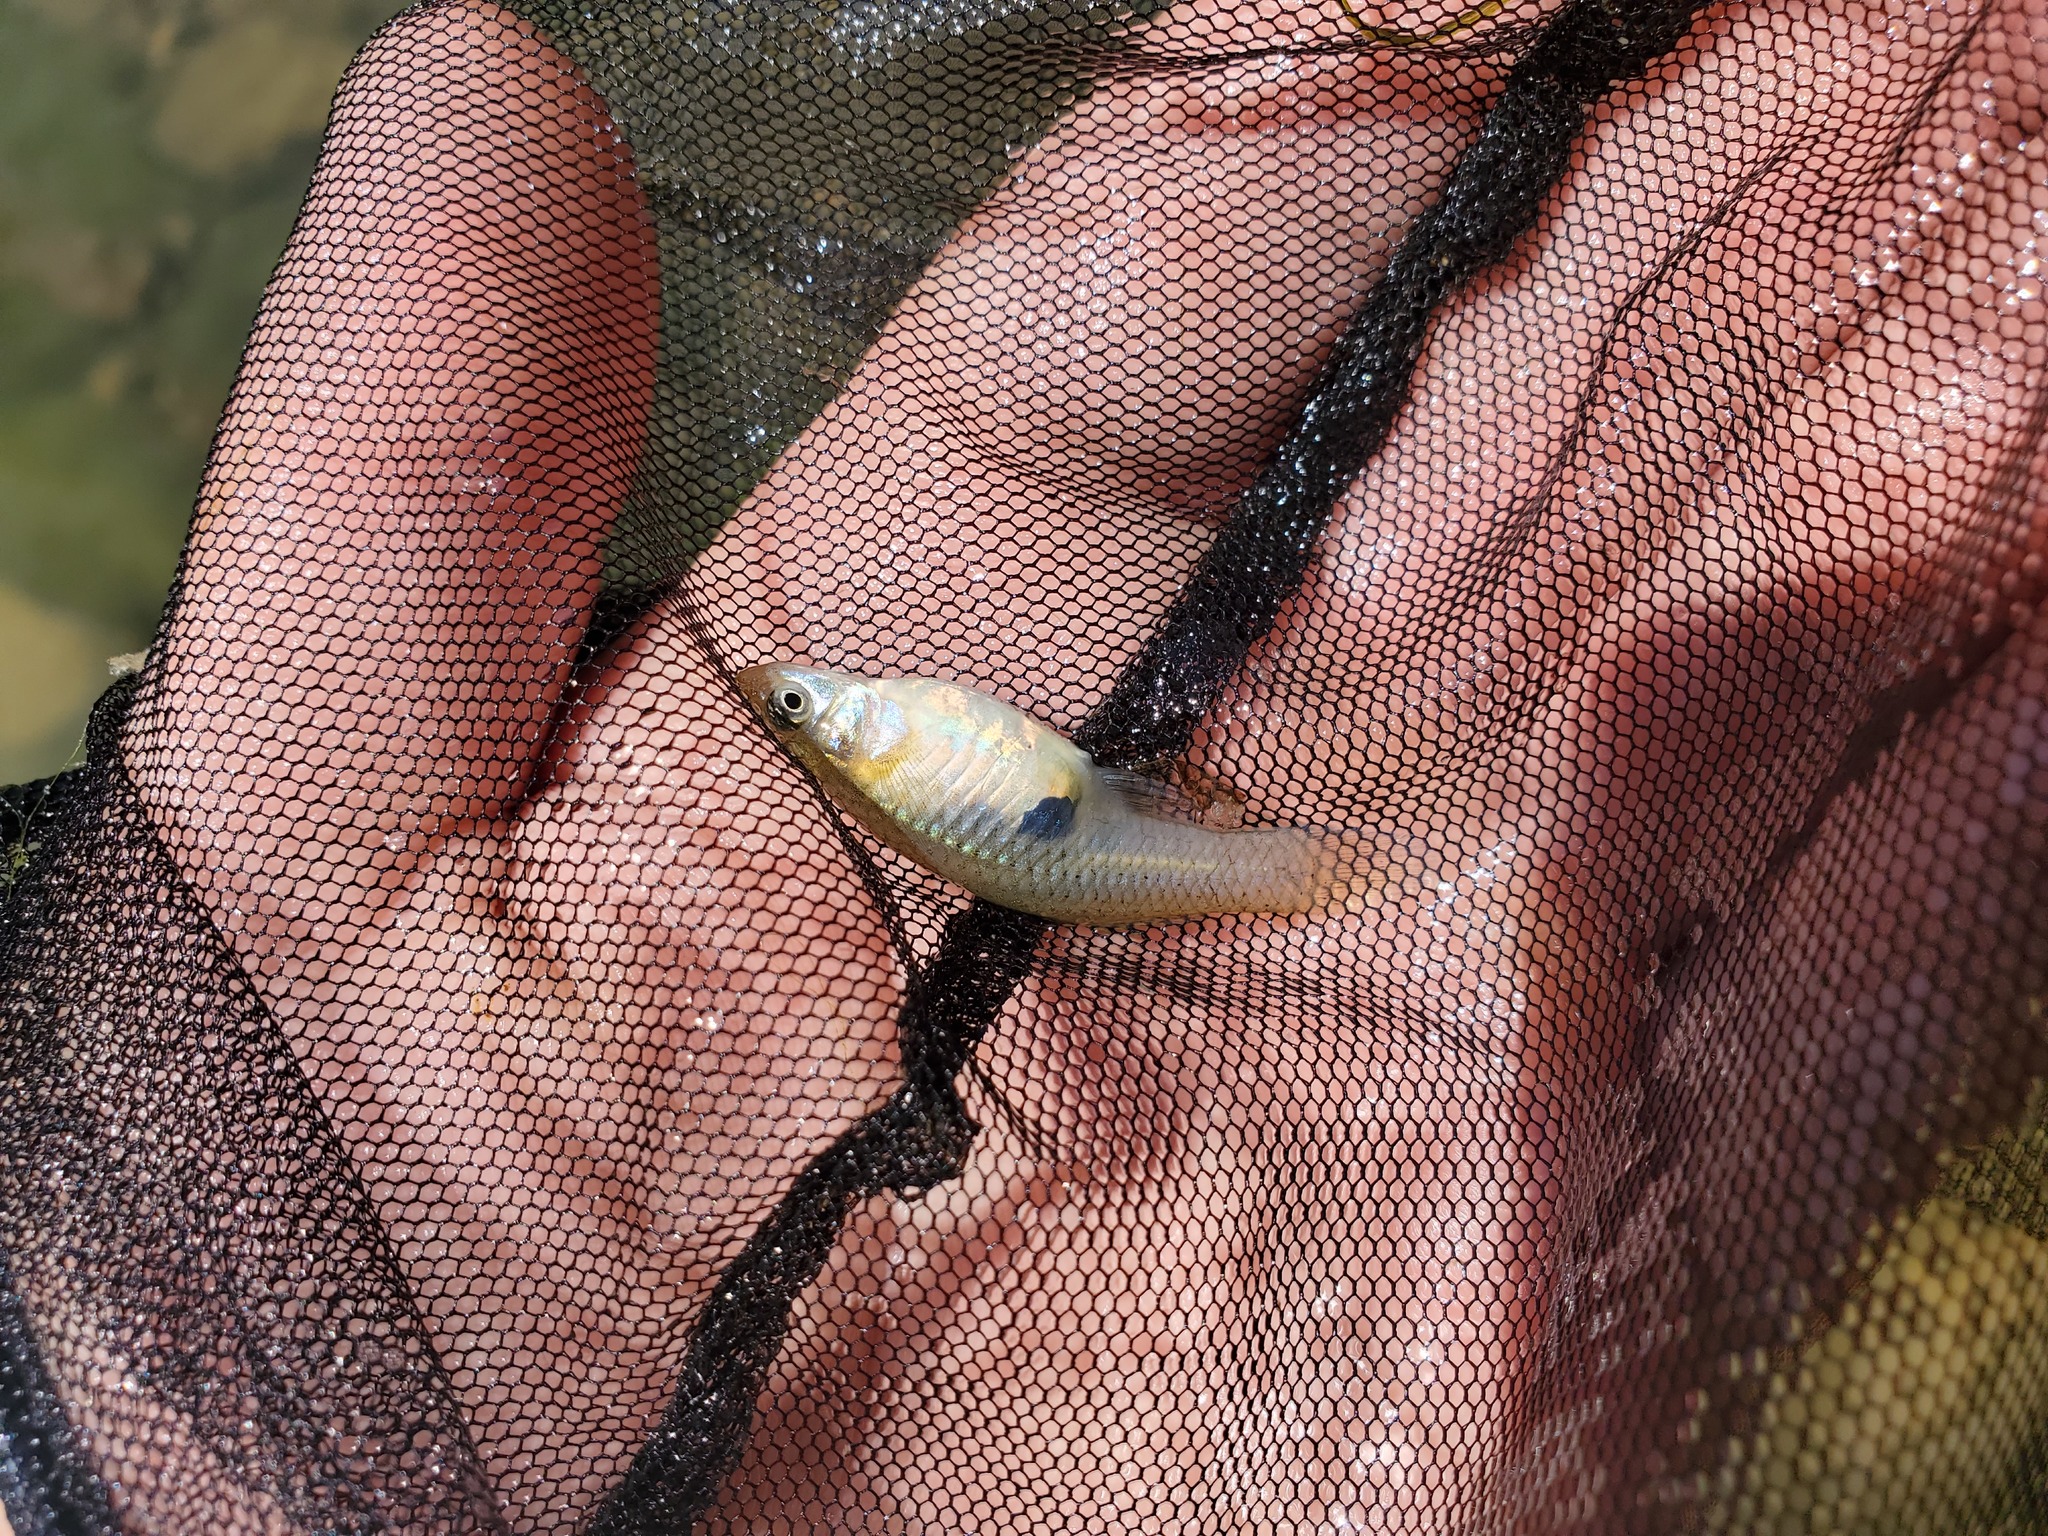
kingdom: Animalia
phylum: Chordata
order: Cyprinodontiformes
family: Poeciliidae
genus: Gambusia
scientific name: Gambusia affinis
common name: Mosquitofish
